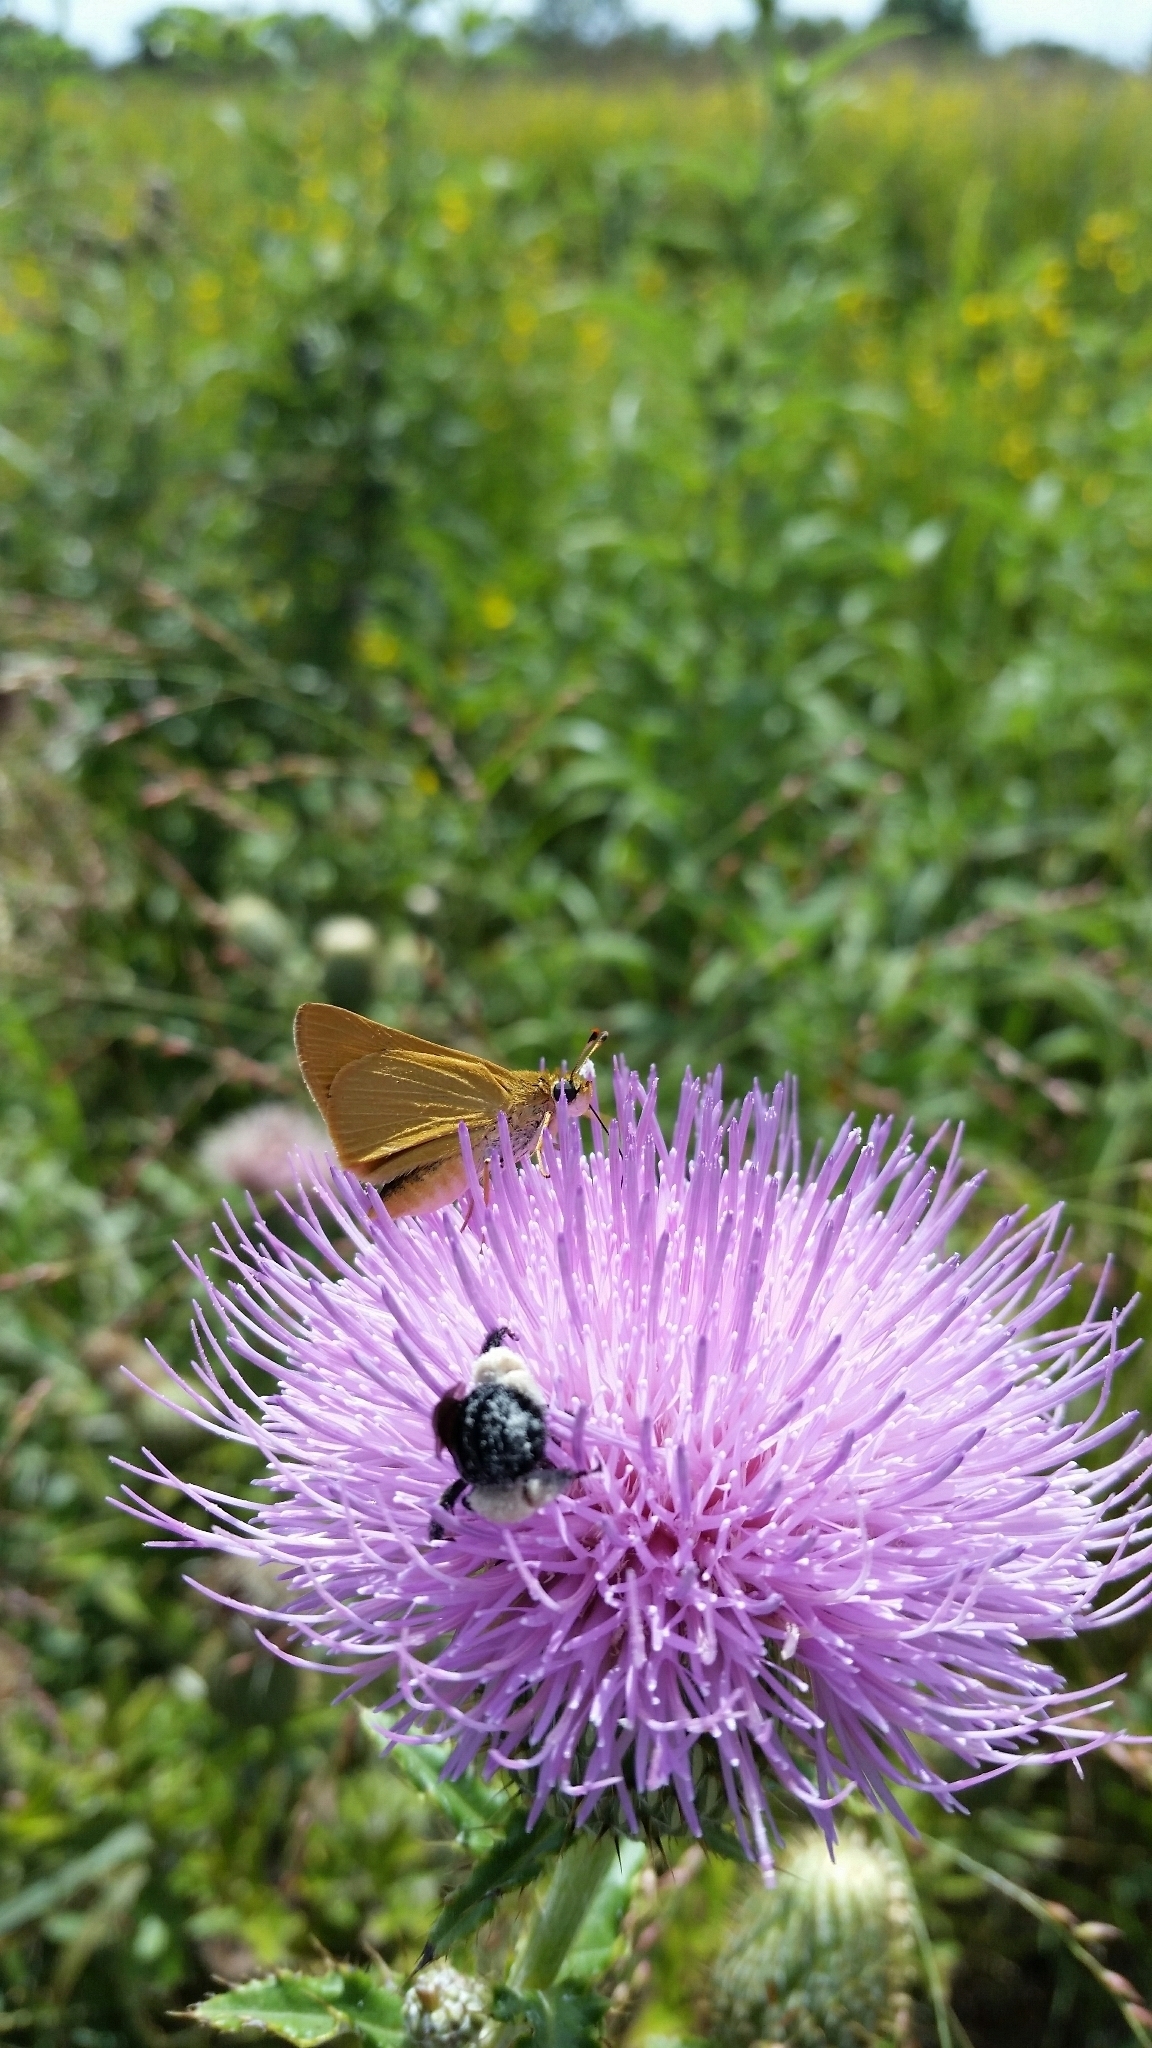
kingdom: Animalia
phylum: Arthropoda
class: Insecta
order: Lepidoptera
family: Hesperiidae
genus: Atrytone
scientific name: Atrytone delaware
